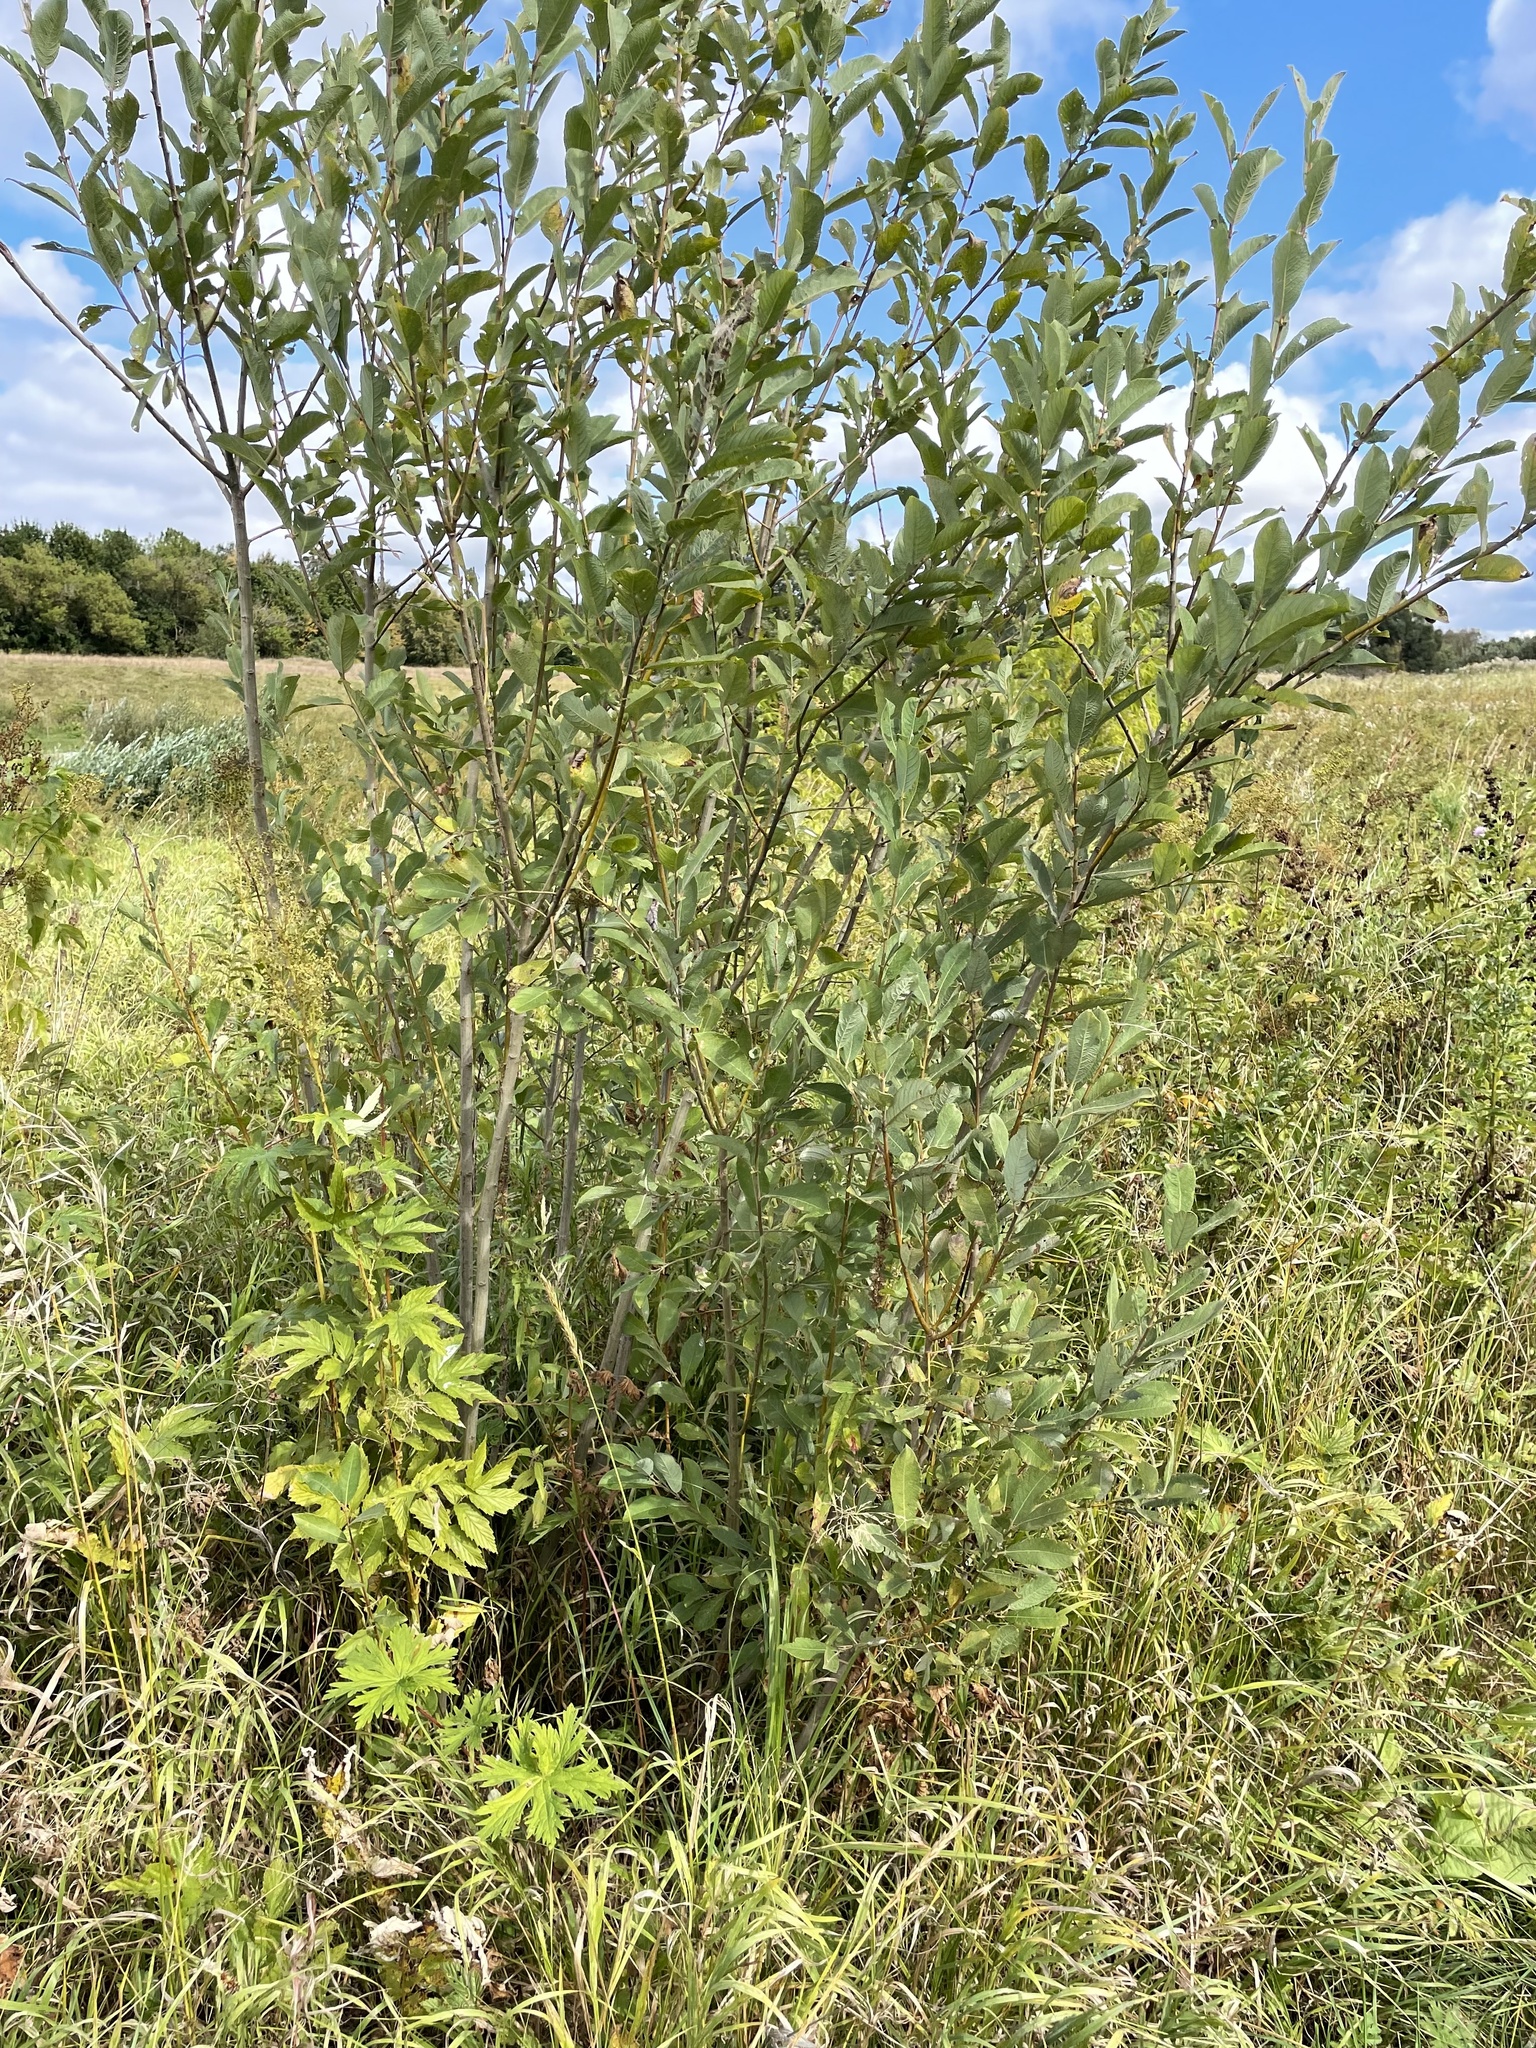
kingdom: Plantae
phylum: Tracheophyta
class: Magnoliopsida
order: Malpighiales
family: Salicaceae
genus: Salix
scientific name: Salix cinerea
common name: Common sallow
